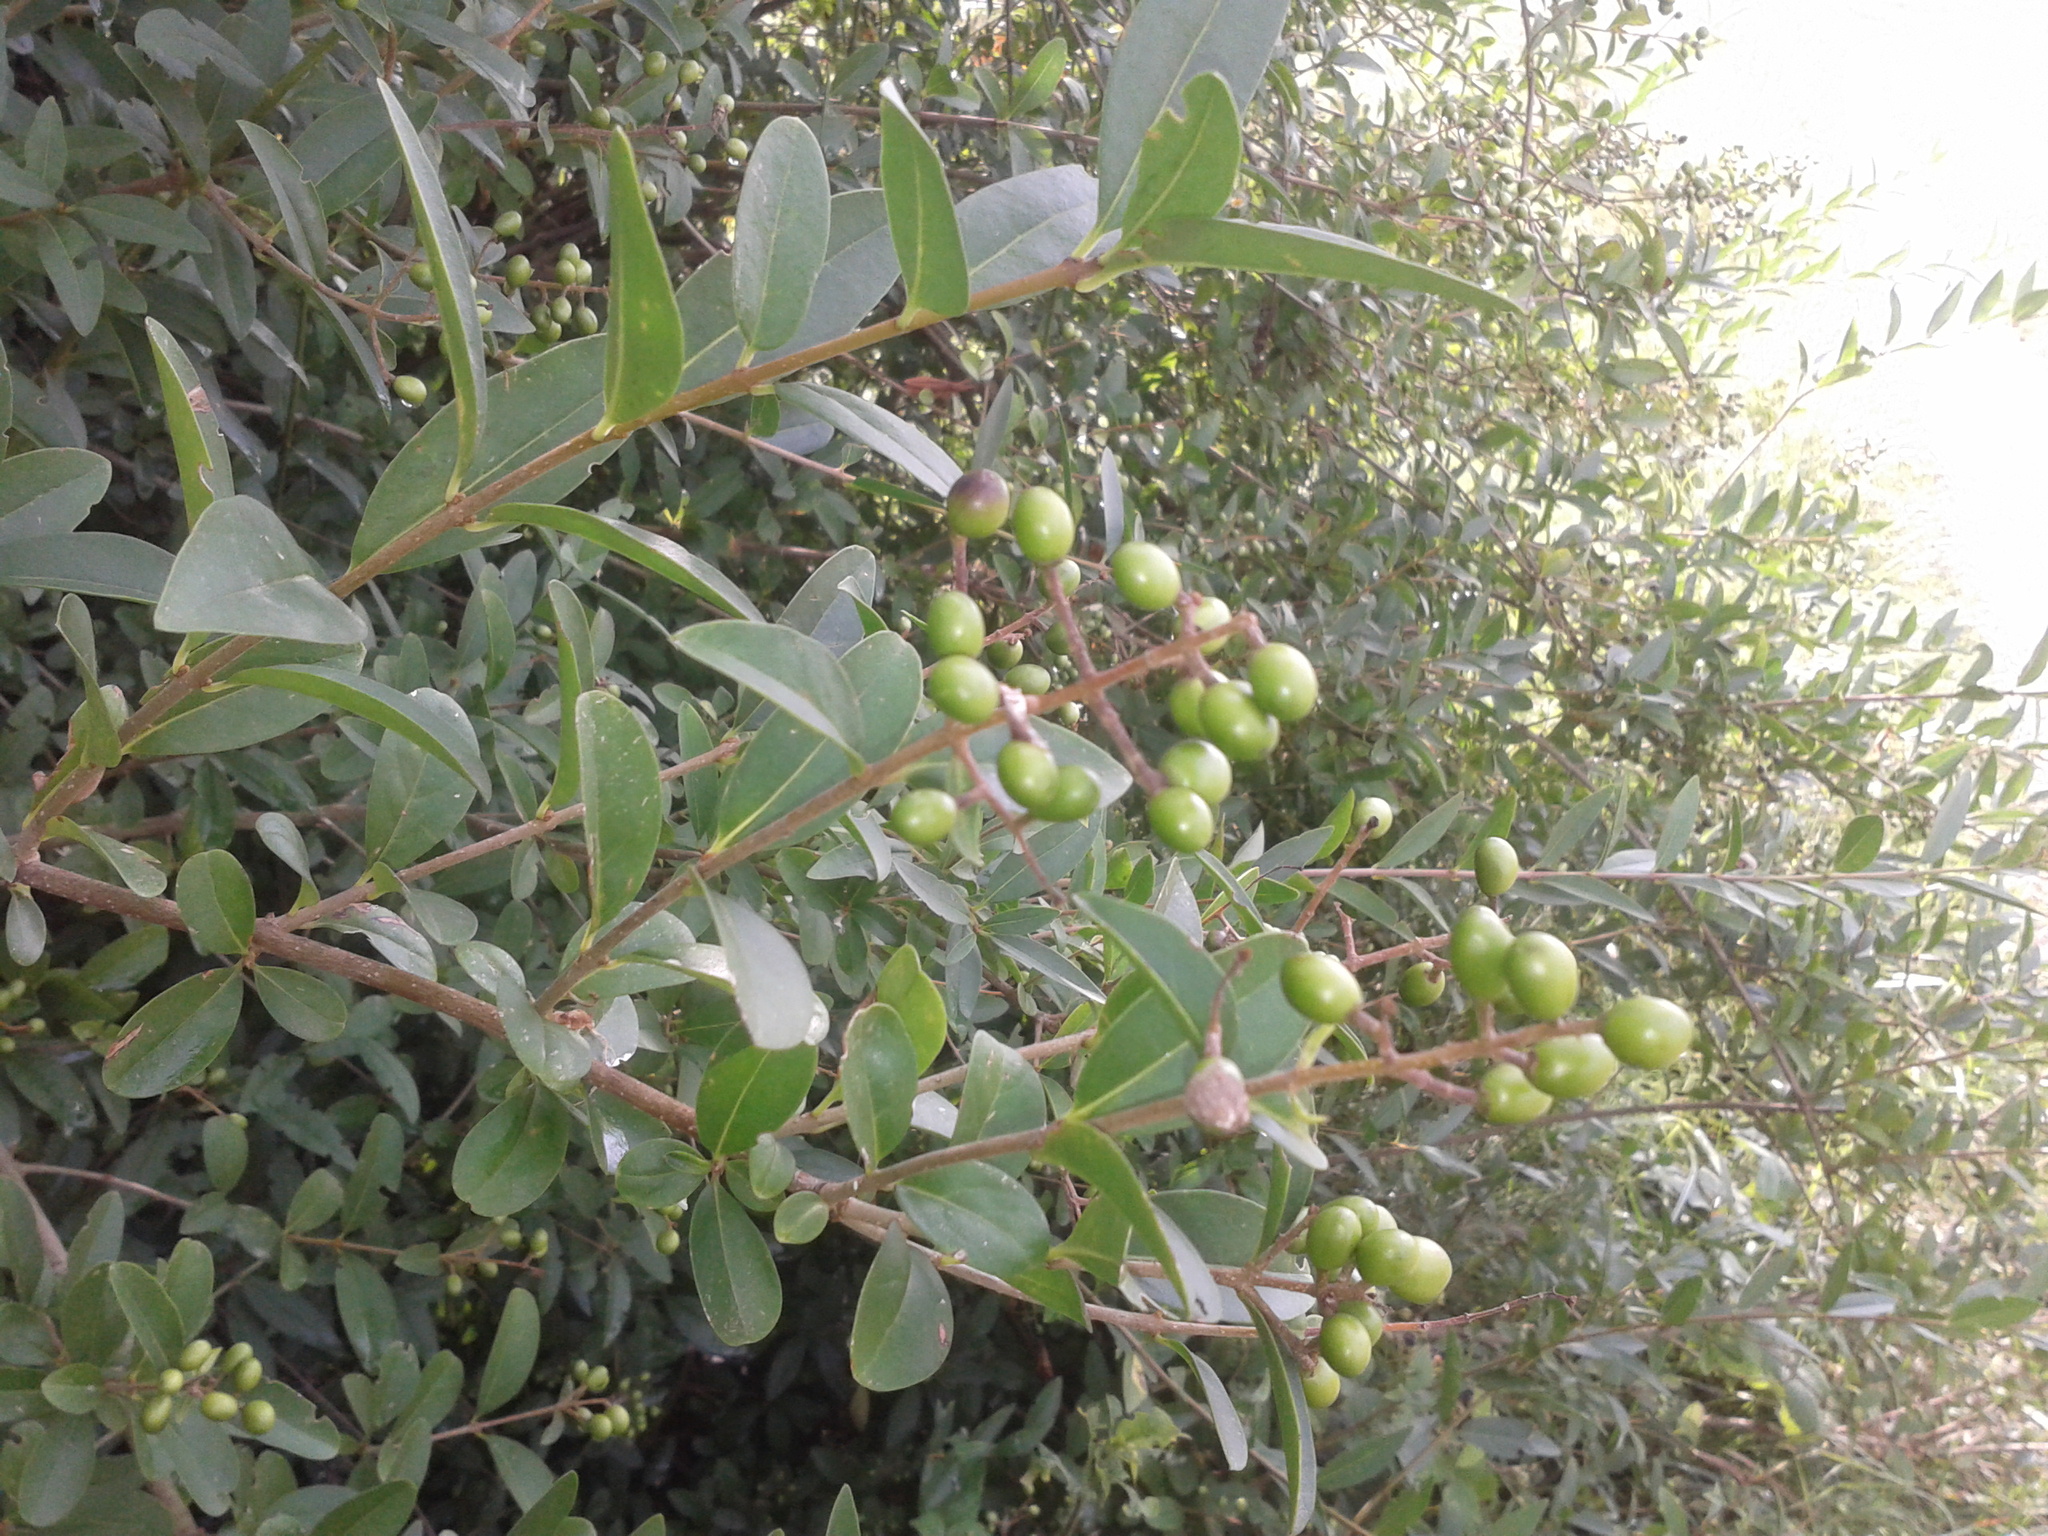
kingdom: Plantae
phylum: Tracheophyta
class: Magnoliopsida
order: Lamiales
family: Oleaceae
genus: Ligustrum
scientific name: Ligustrum vulgare
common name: Wild privet
